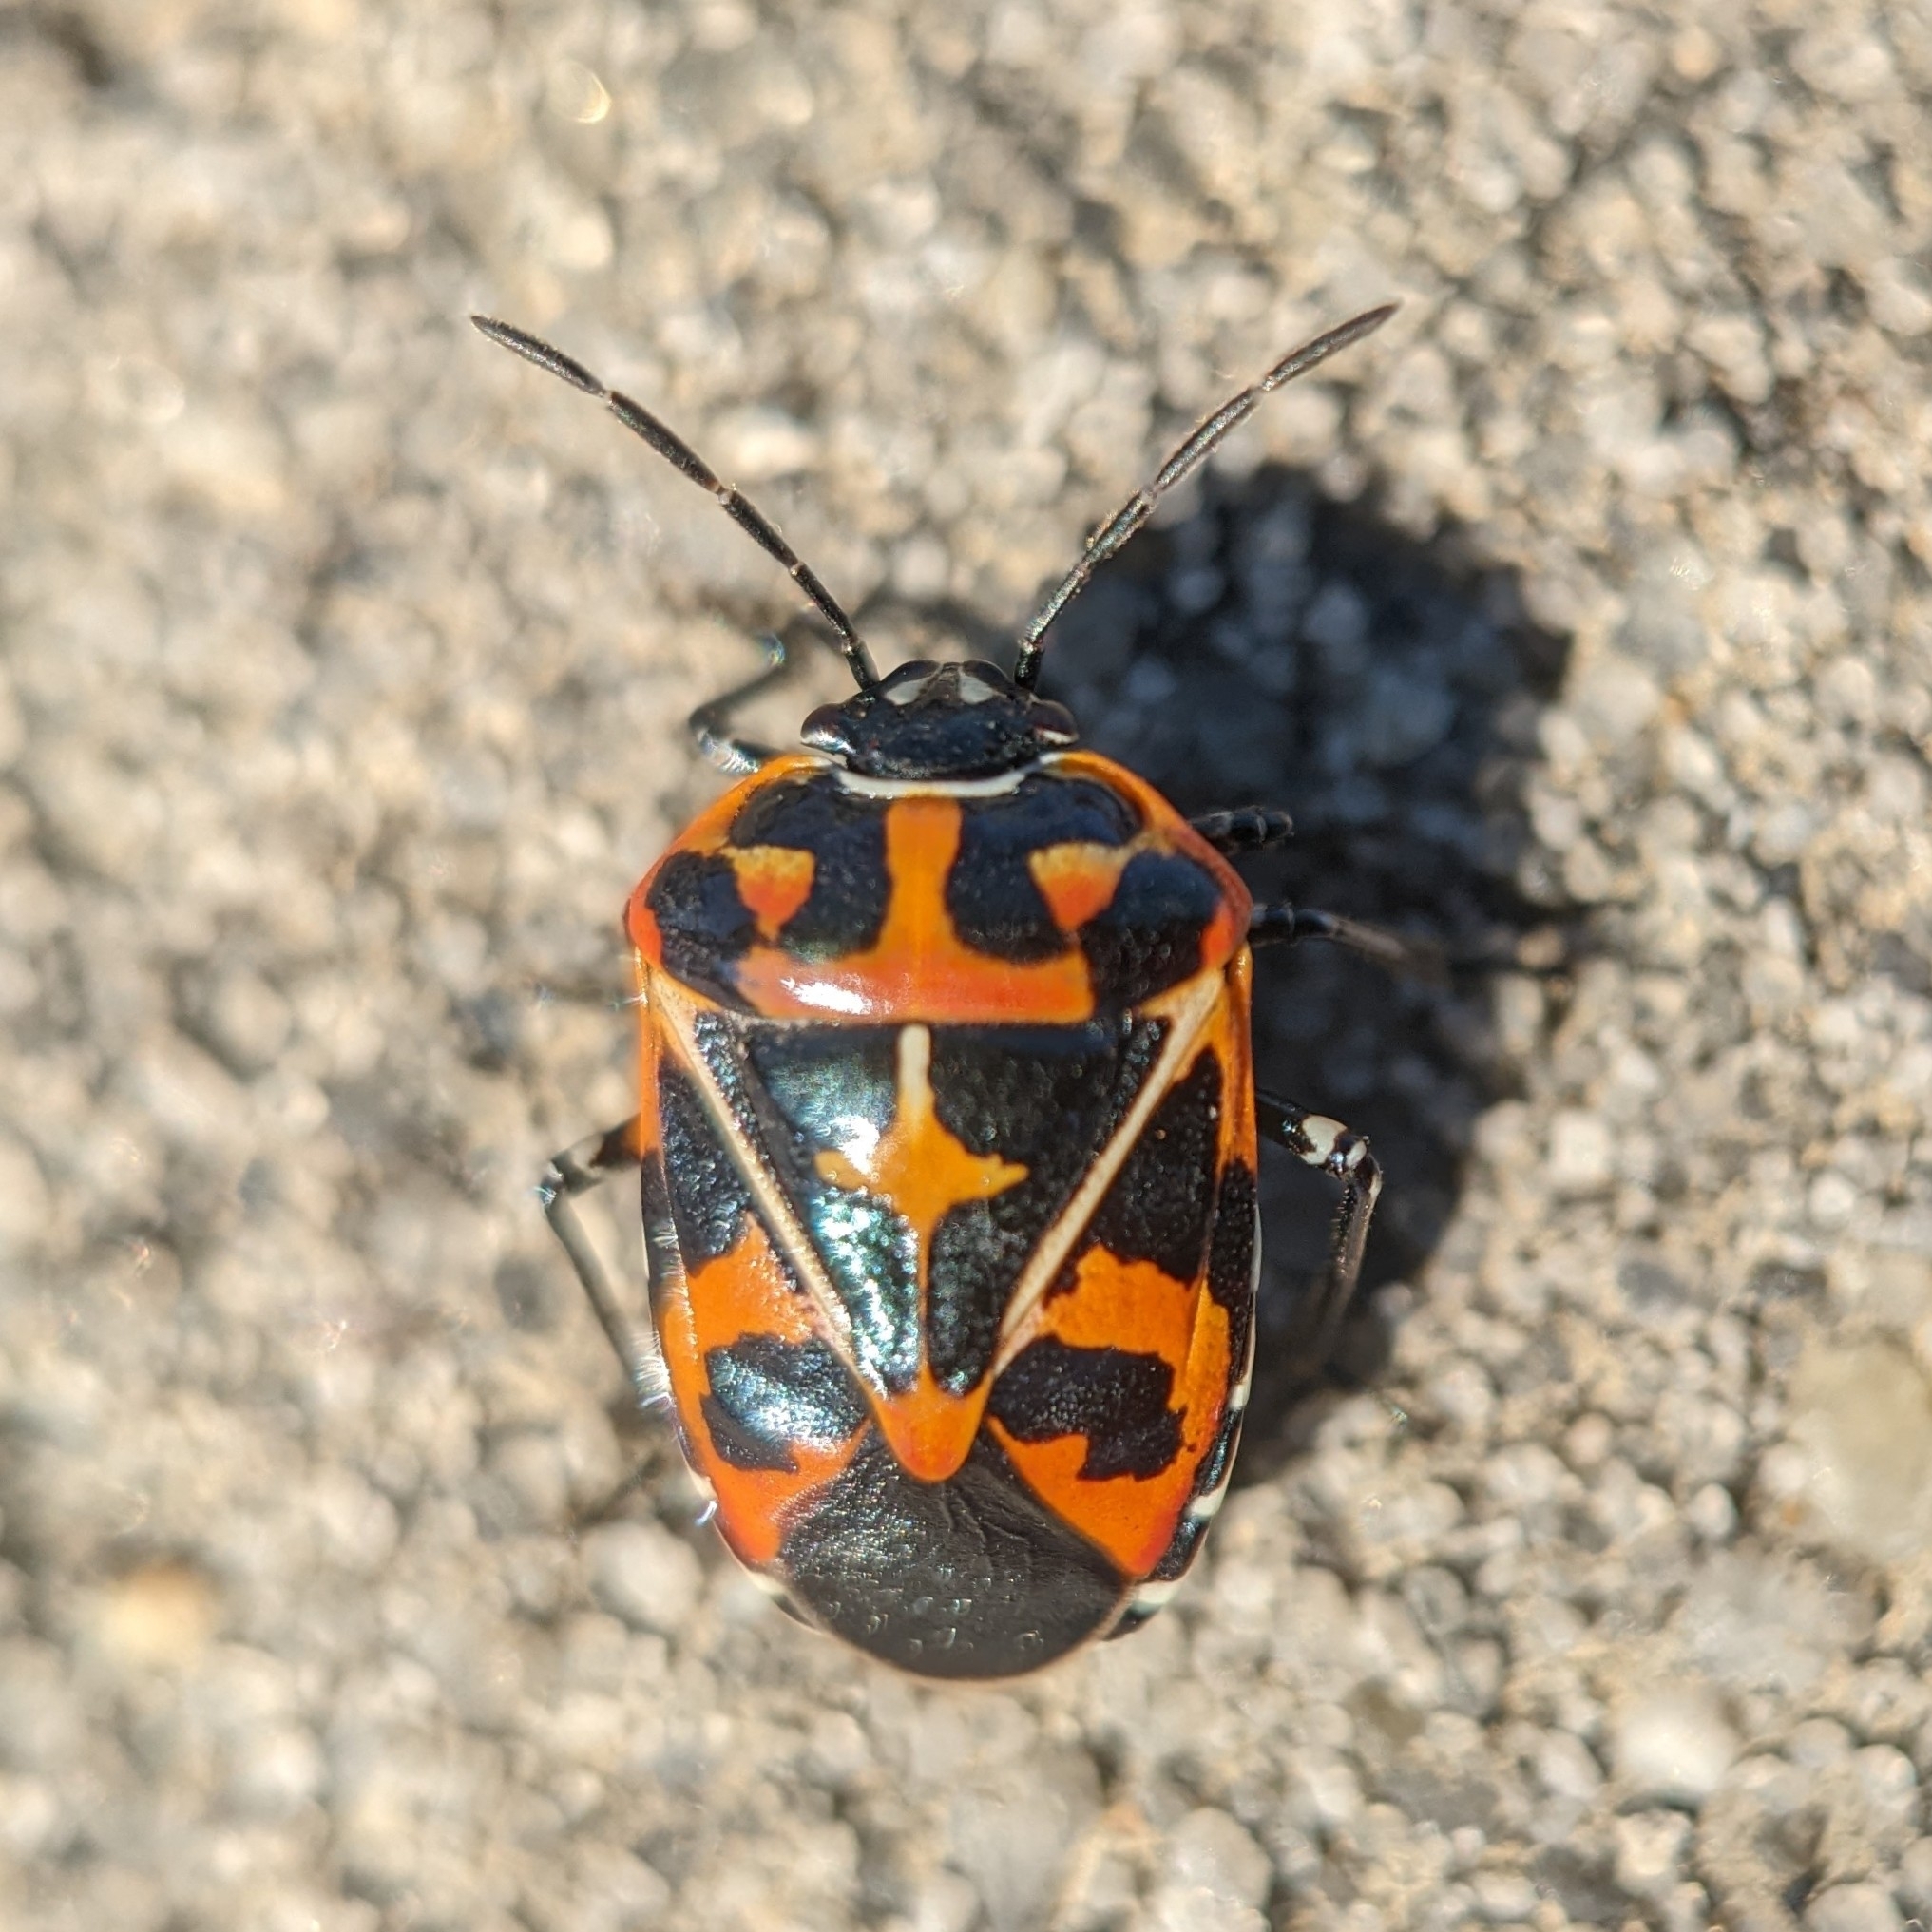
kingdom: Animalia
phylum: Arthropoda
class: Insecta
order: Hemiptera
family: Pentatomidae
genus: Murgantia
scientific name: Murgantia histrionica
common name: Harlequin bug
